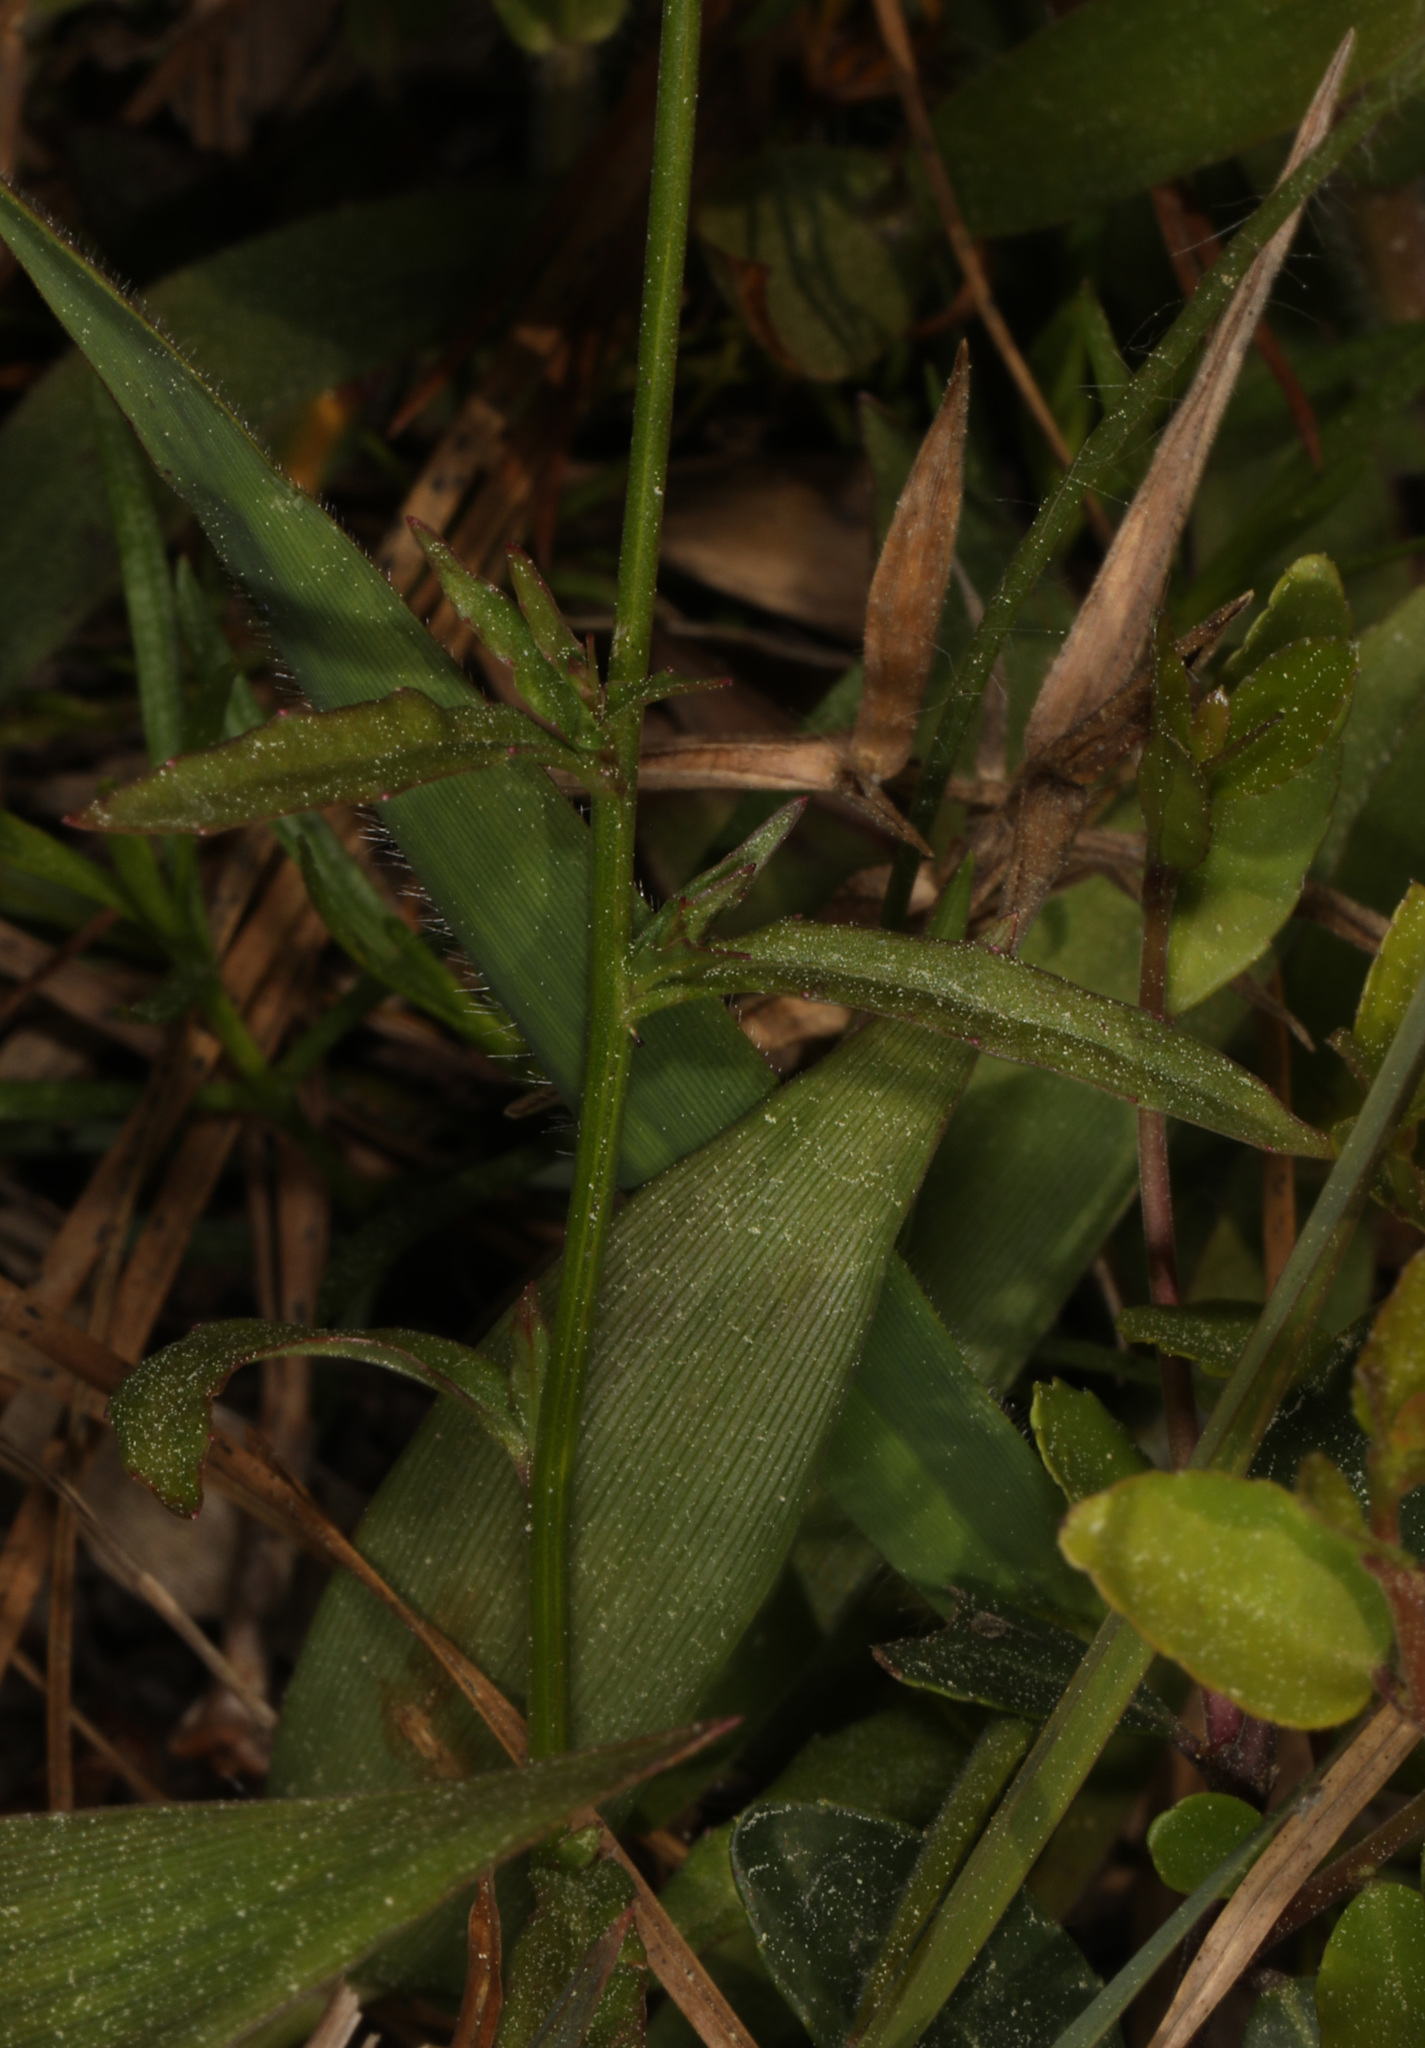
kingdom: Plantae
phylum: Tracheophyta
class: Magnoliopsida
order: Asterales
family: Campanulaceae
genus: Wahlenbergia
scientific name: Wahlenbergia marginata
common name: Southern rockbell
